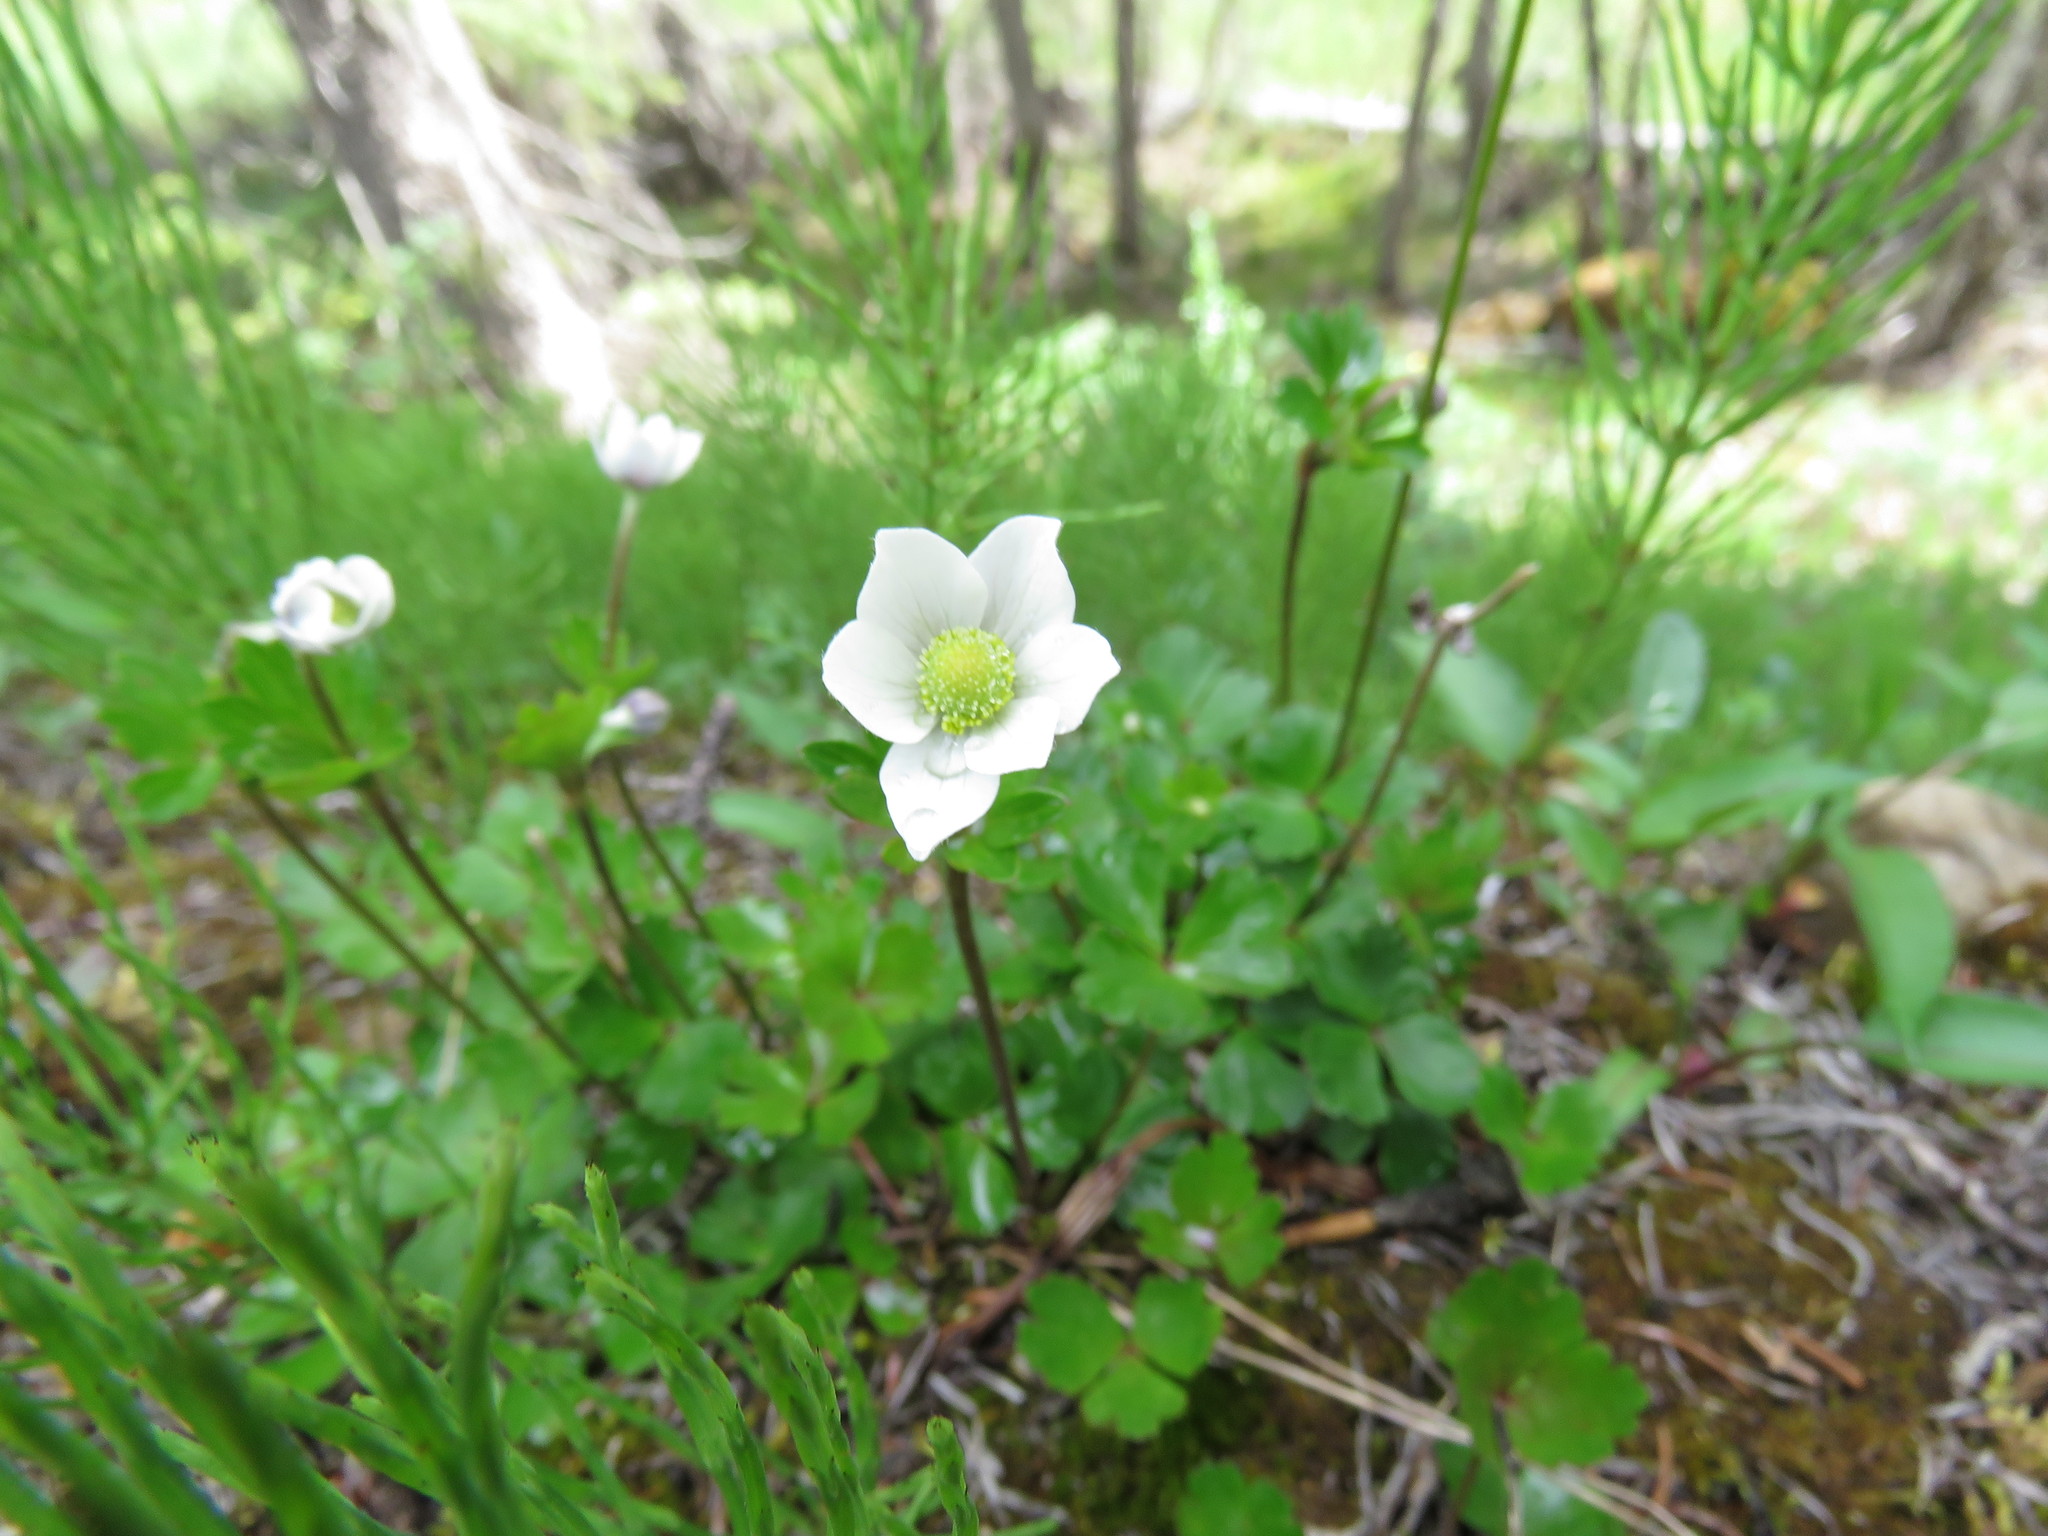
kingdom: Plantae
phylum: Tracheophyta
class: Magnoliopsida
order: Ranunculales
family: Ranunculaceae
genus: Anemone
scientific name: Anemone parviflora
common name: Northern anemone
